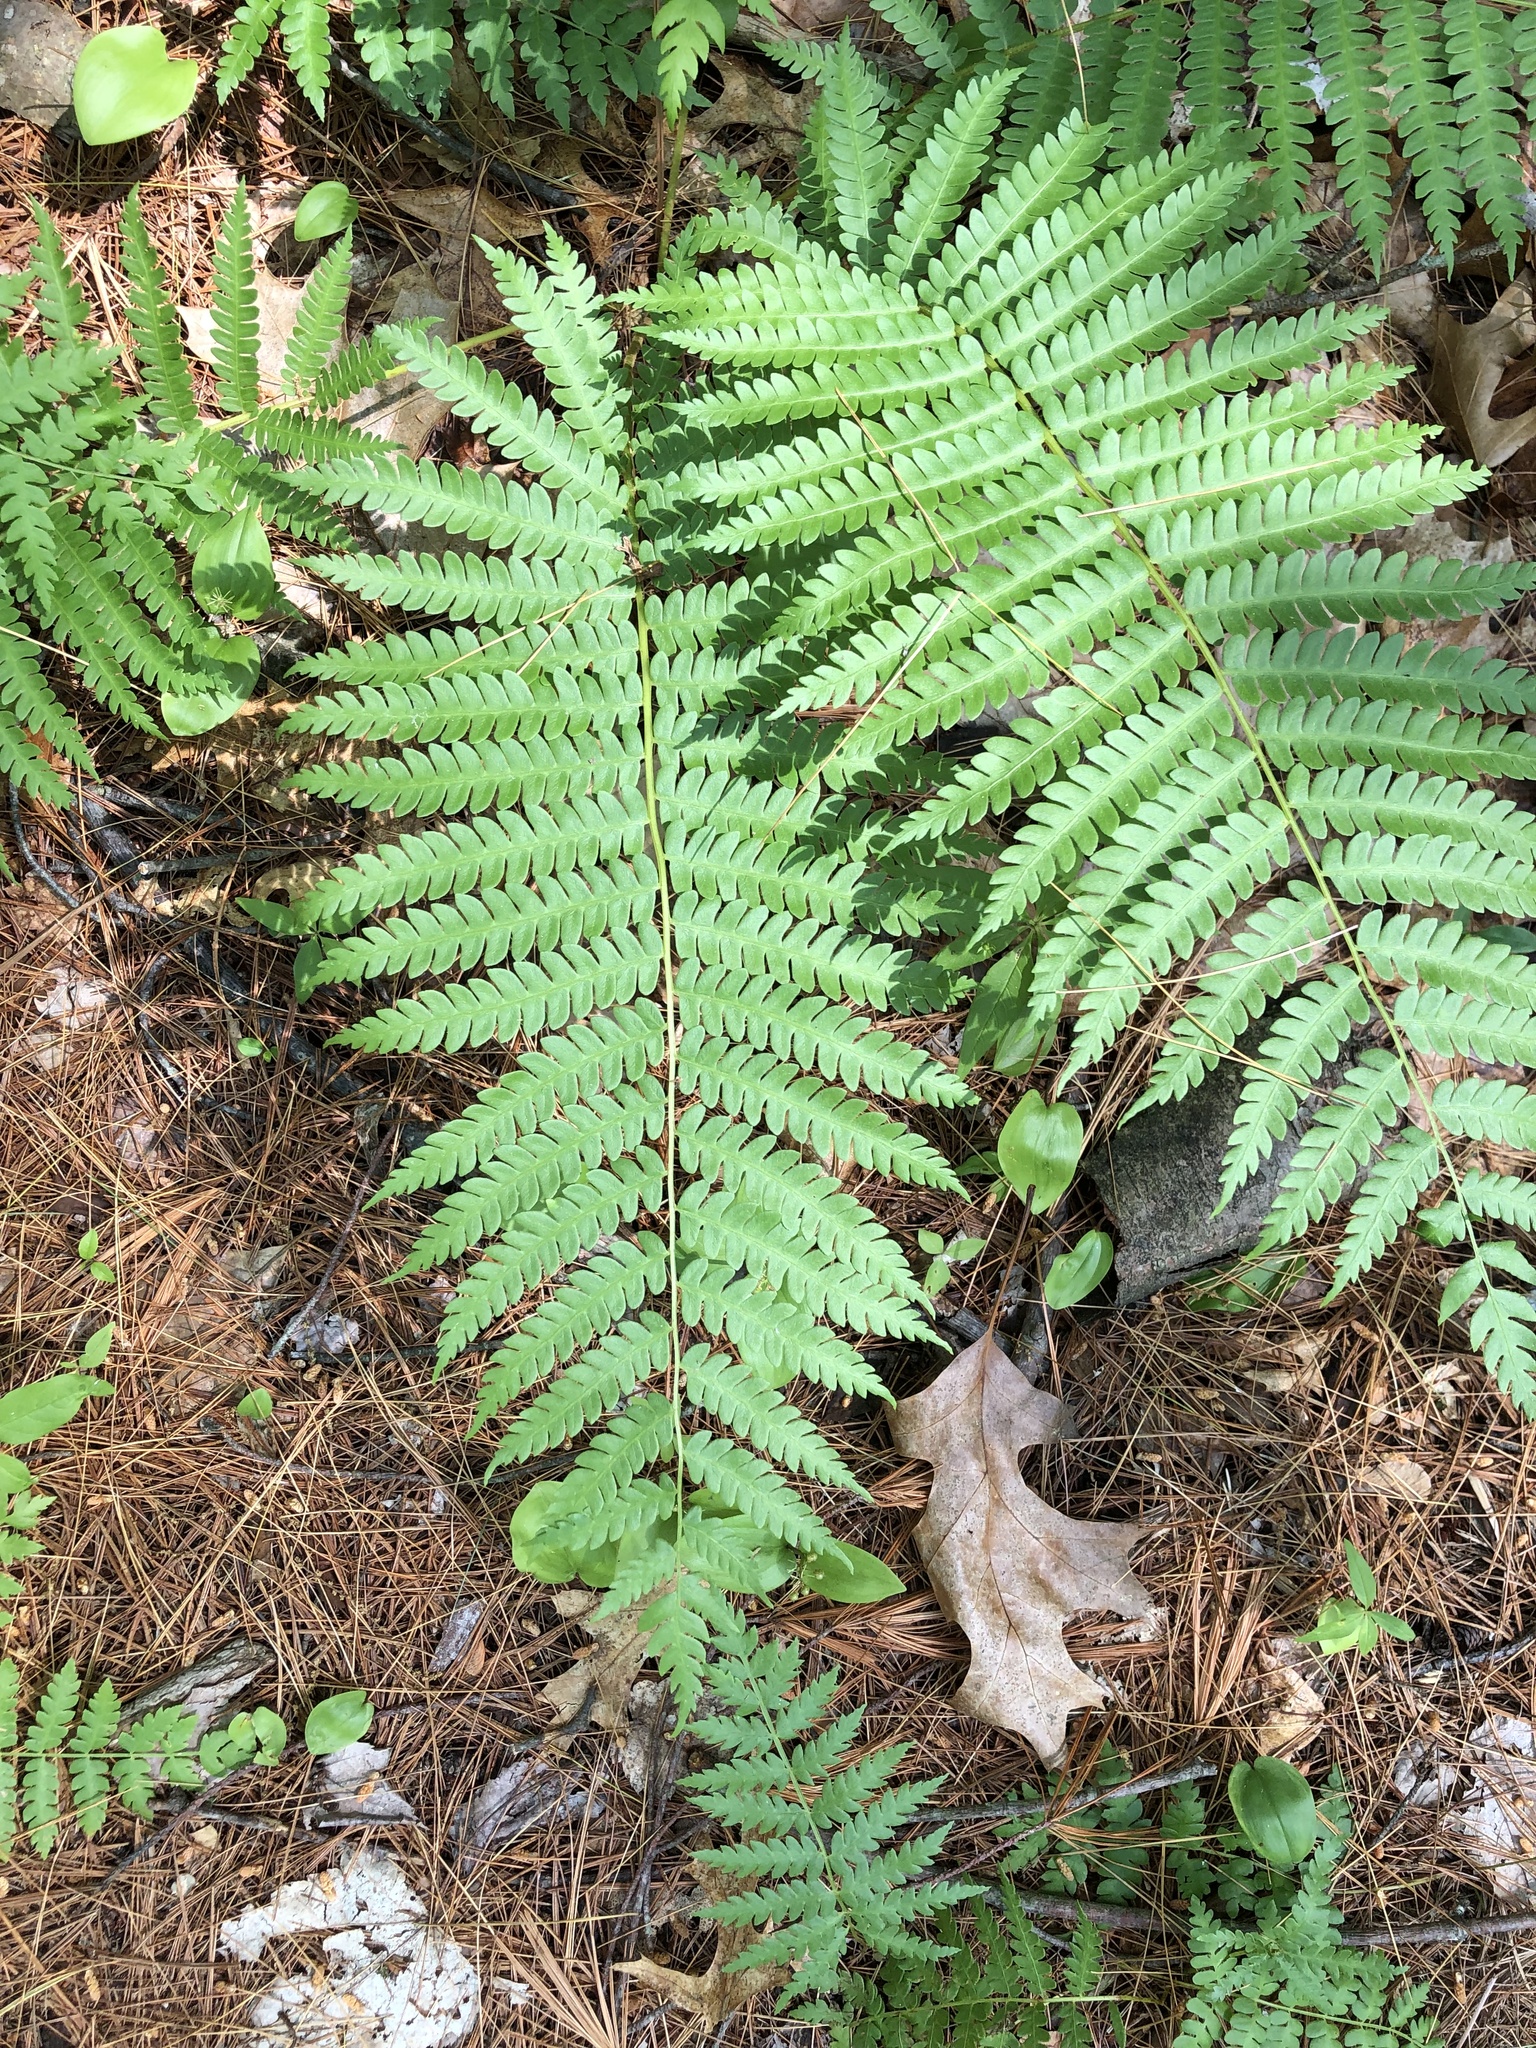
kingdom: Plantae
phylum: Tracheophyta
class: Polypodiopsida
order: Osmundales
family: Osmundaceae
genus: Osmundastrum
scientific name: Osmundastrum cinnamomeum
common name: Cinnamon fern
